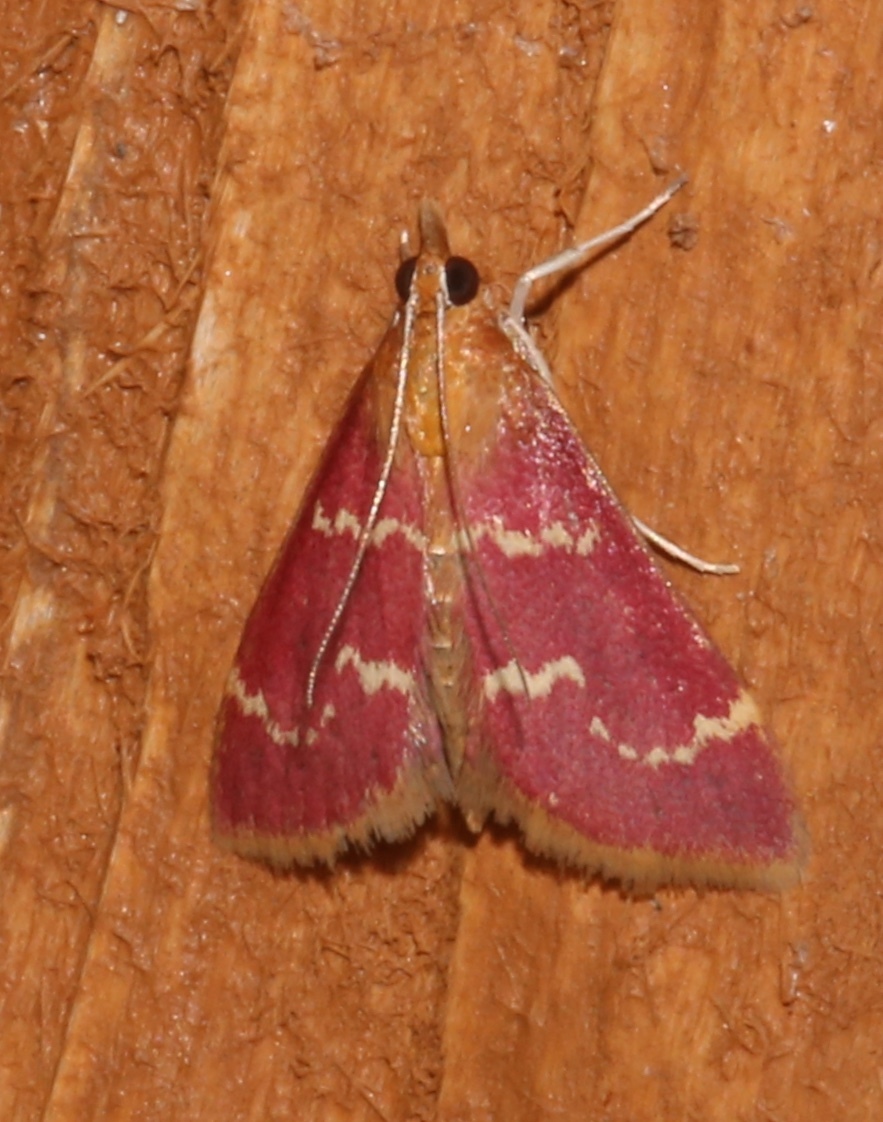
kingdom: Animalia
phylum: Arthropoda
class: Insecta
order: Lepidoptera
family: Crambidae
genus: Pyrausta
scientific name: Pyrausta signatalis
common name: Raspberry pyrausta moth
